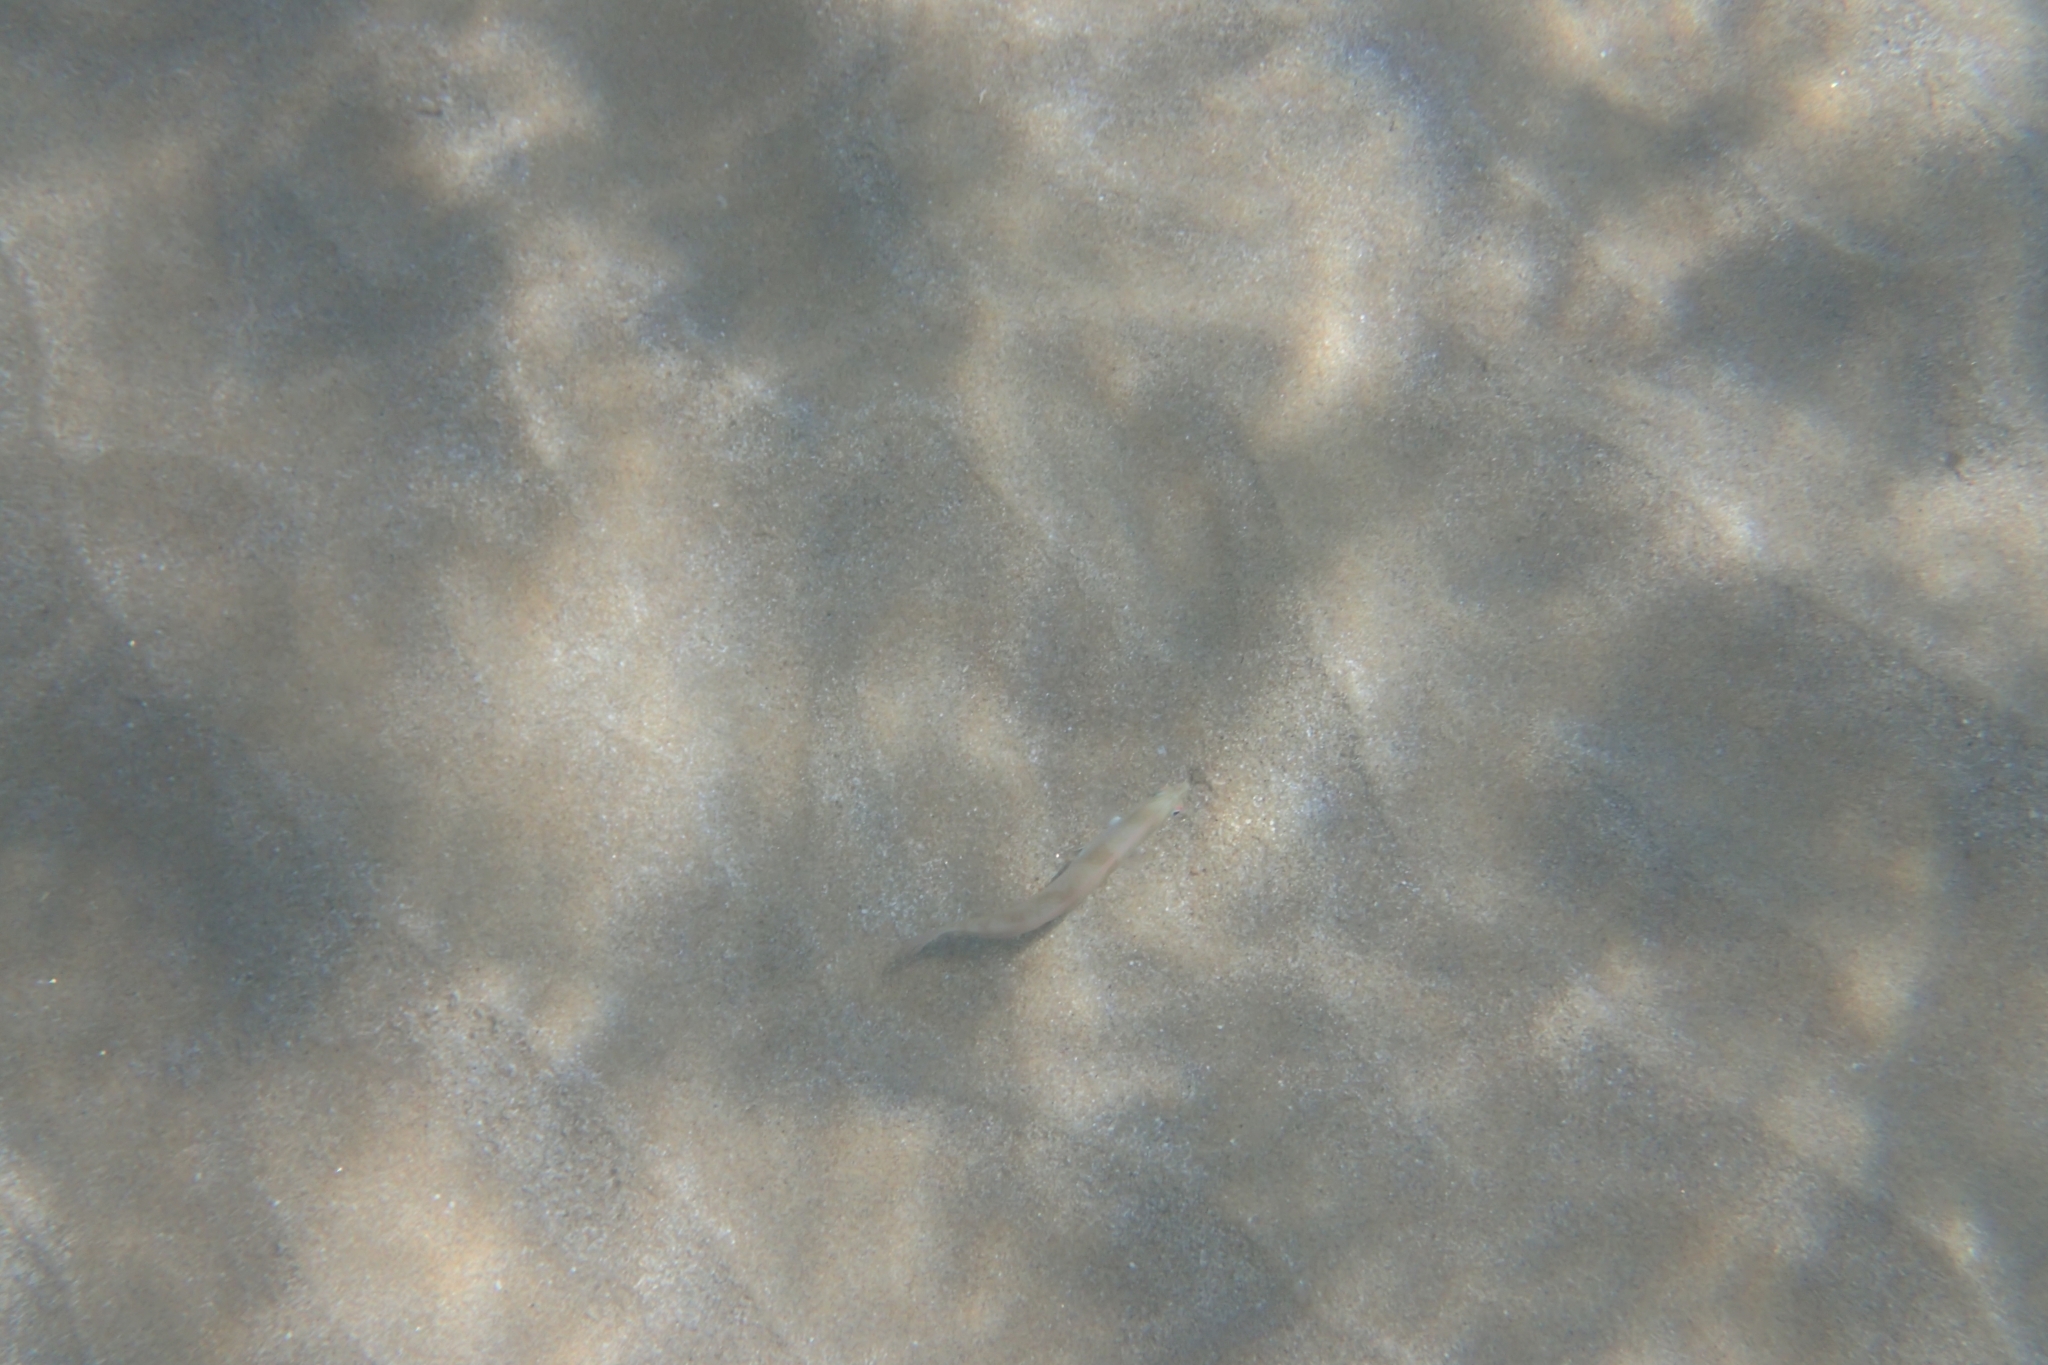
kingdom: Animalia
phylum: Chordata
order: Perciformes
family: Labridae
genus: Xyrichtys
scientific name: Xyrichtys novacula
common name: Pearly razorfish
